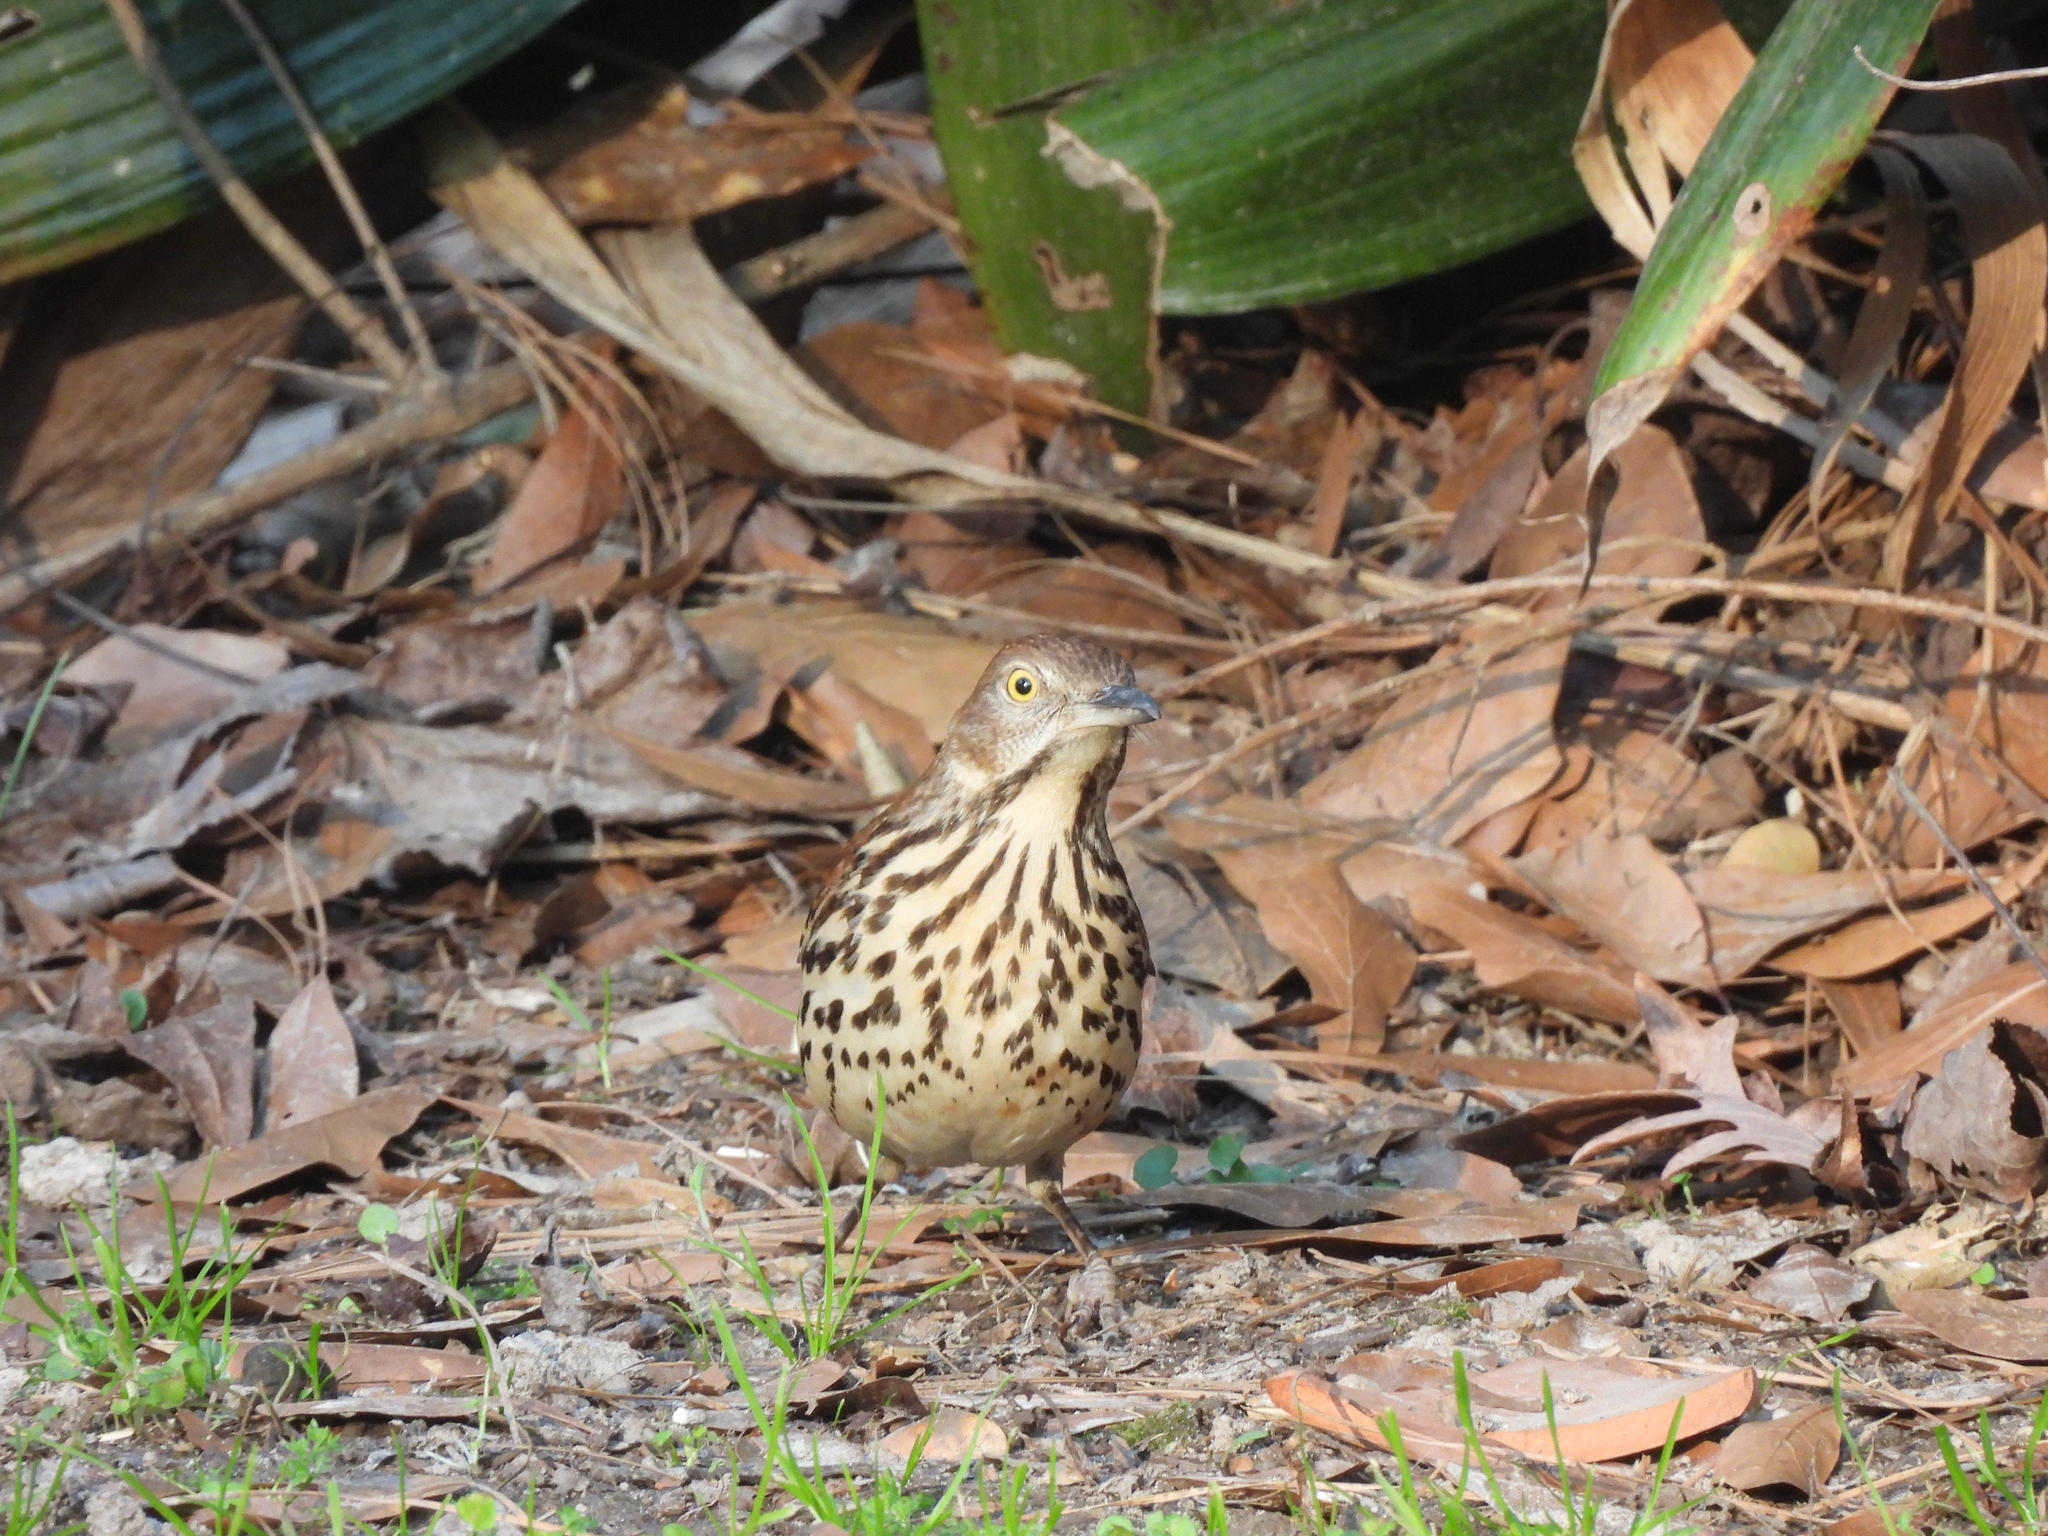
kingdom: Animalia
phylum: Chordata
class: Aves
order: Passeriformes
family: Mimidae
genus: Toxostoma
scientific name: Toxostoma rufum
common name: Brown thrasher
